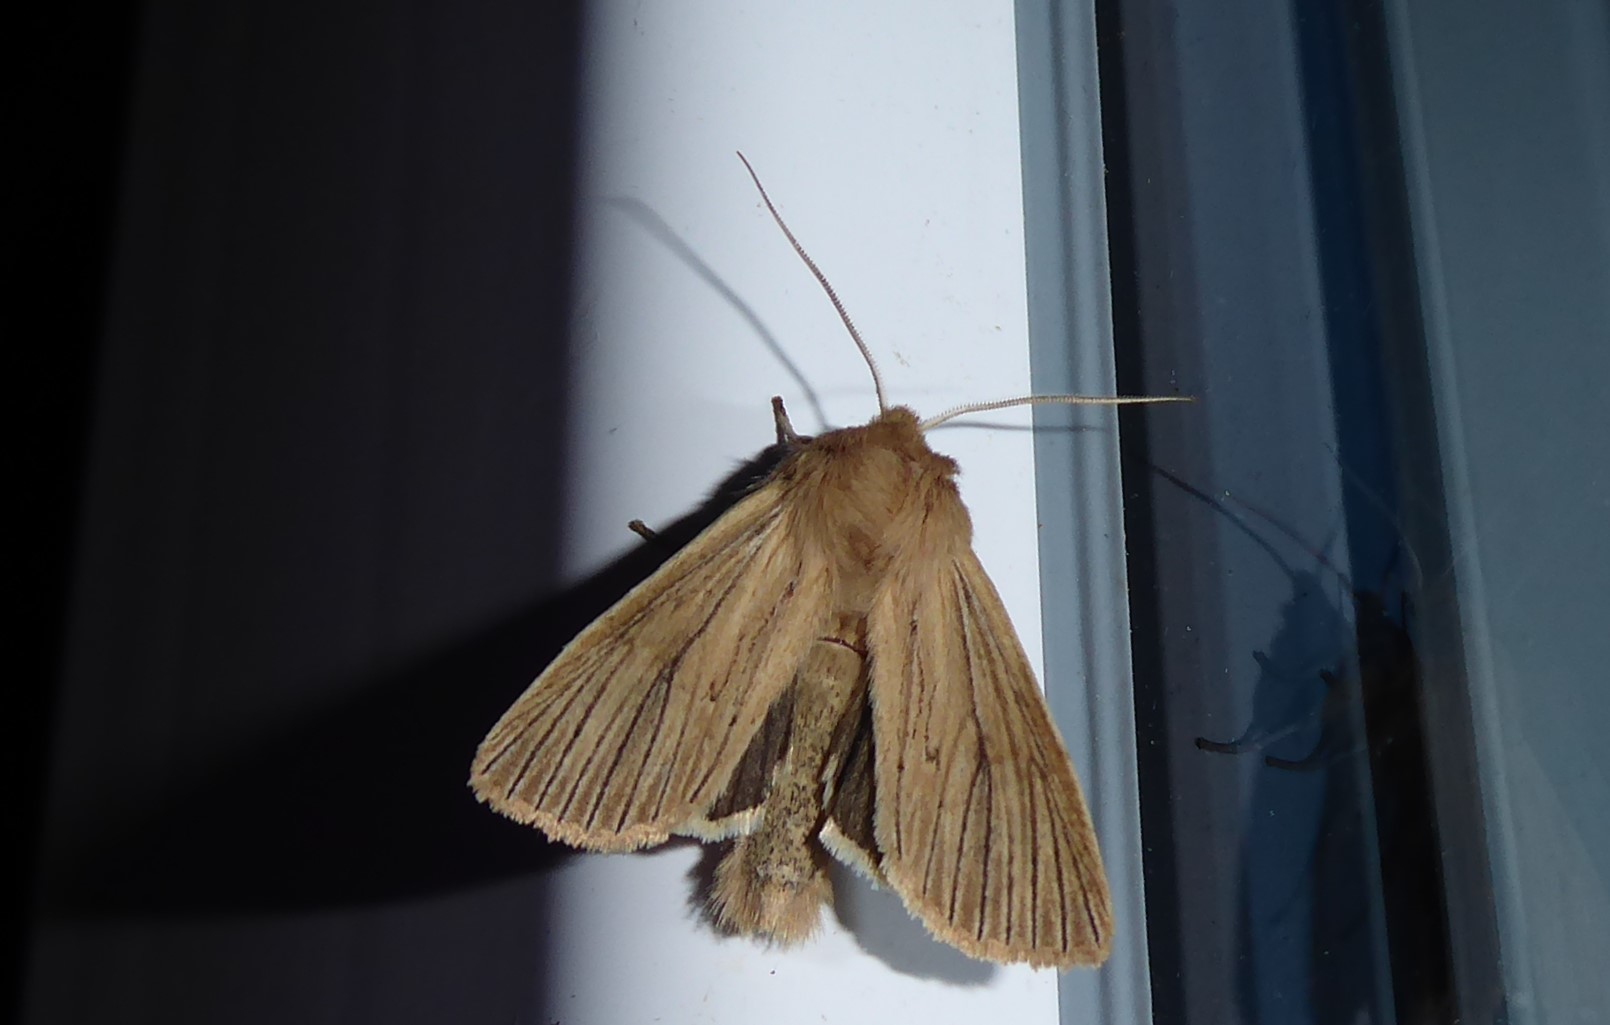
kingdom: Animalia
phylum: Arthropoda
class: Insecta
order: Lepidoptera
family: Noctuidae
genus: Ichneutica
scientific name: Ichneutica arotis
